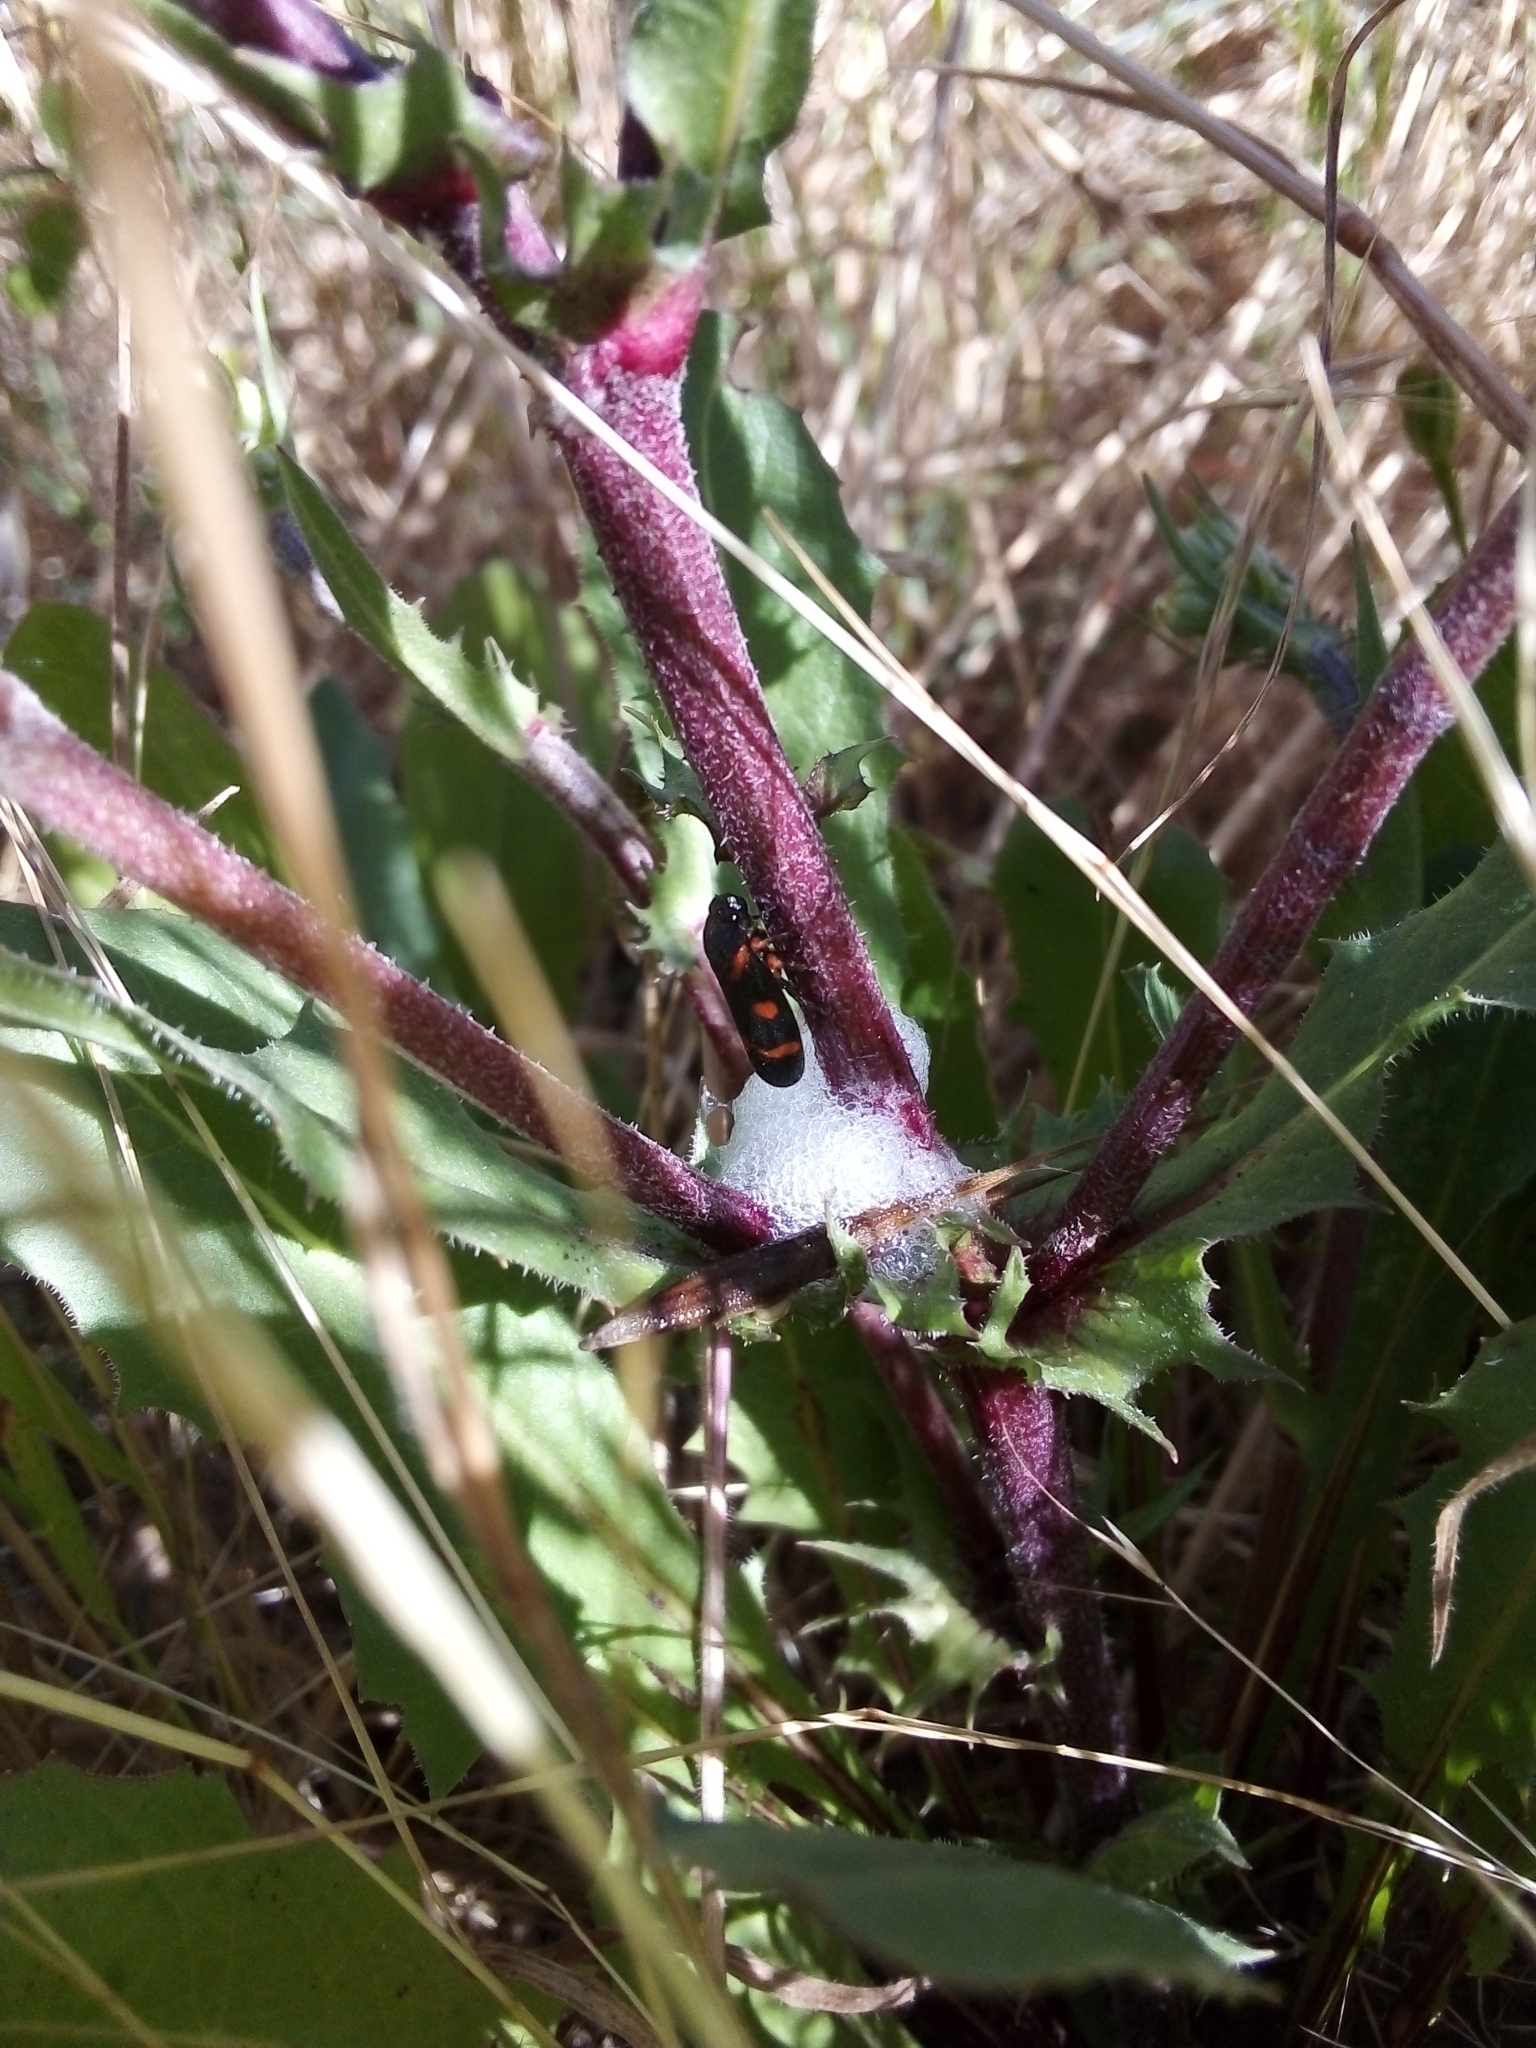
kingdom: Animalia
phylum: Arthropoda
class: Insecta
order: Hemiptera
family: Cercopidae
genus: Cercopis
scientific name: Cercopis intermedia
